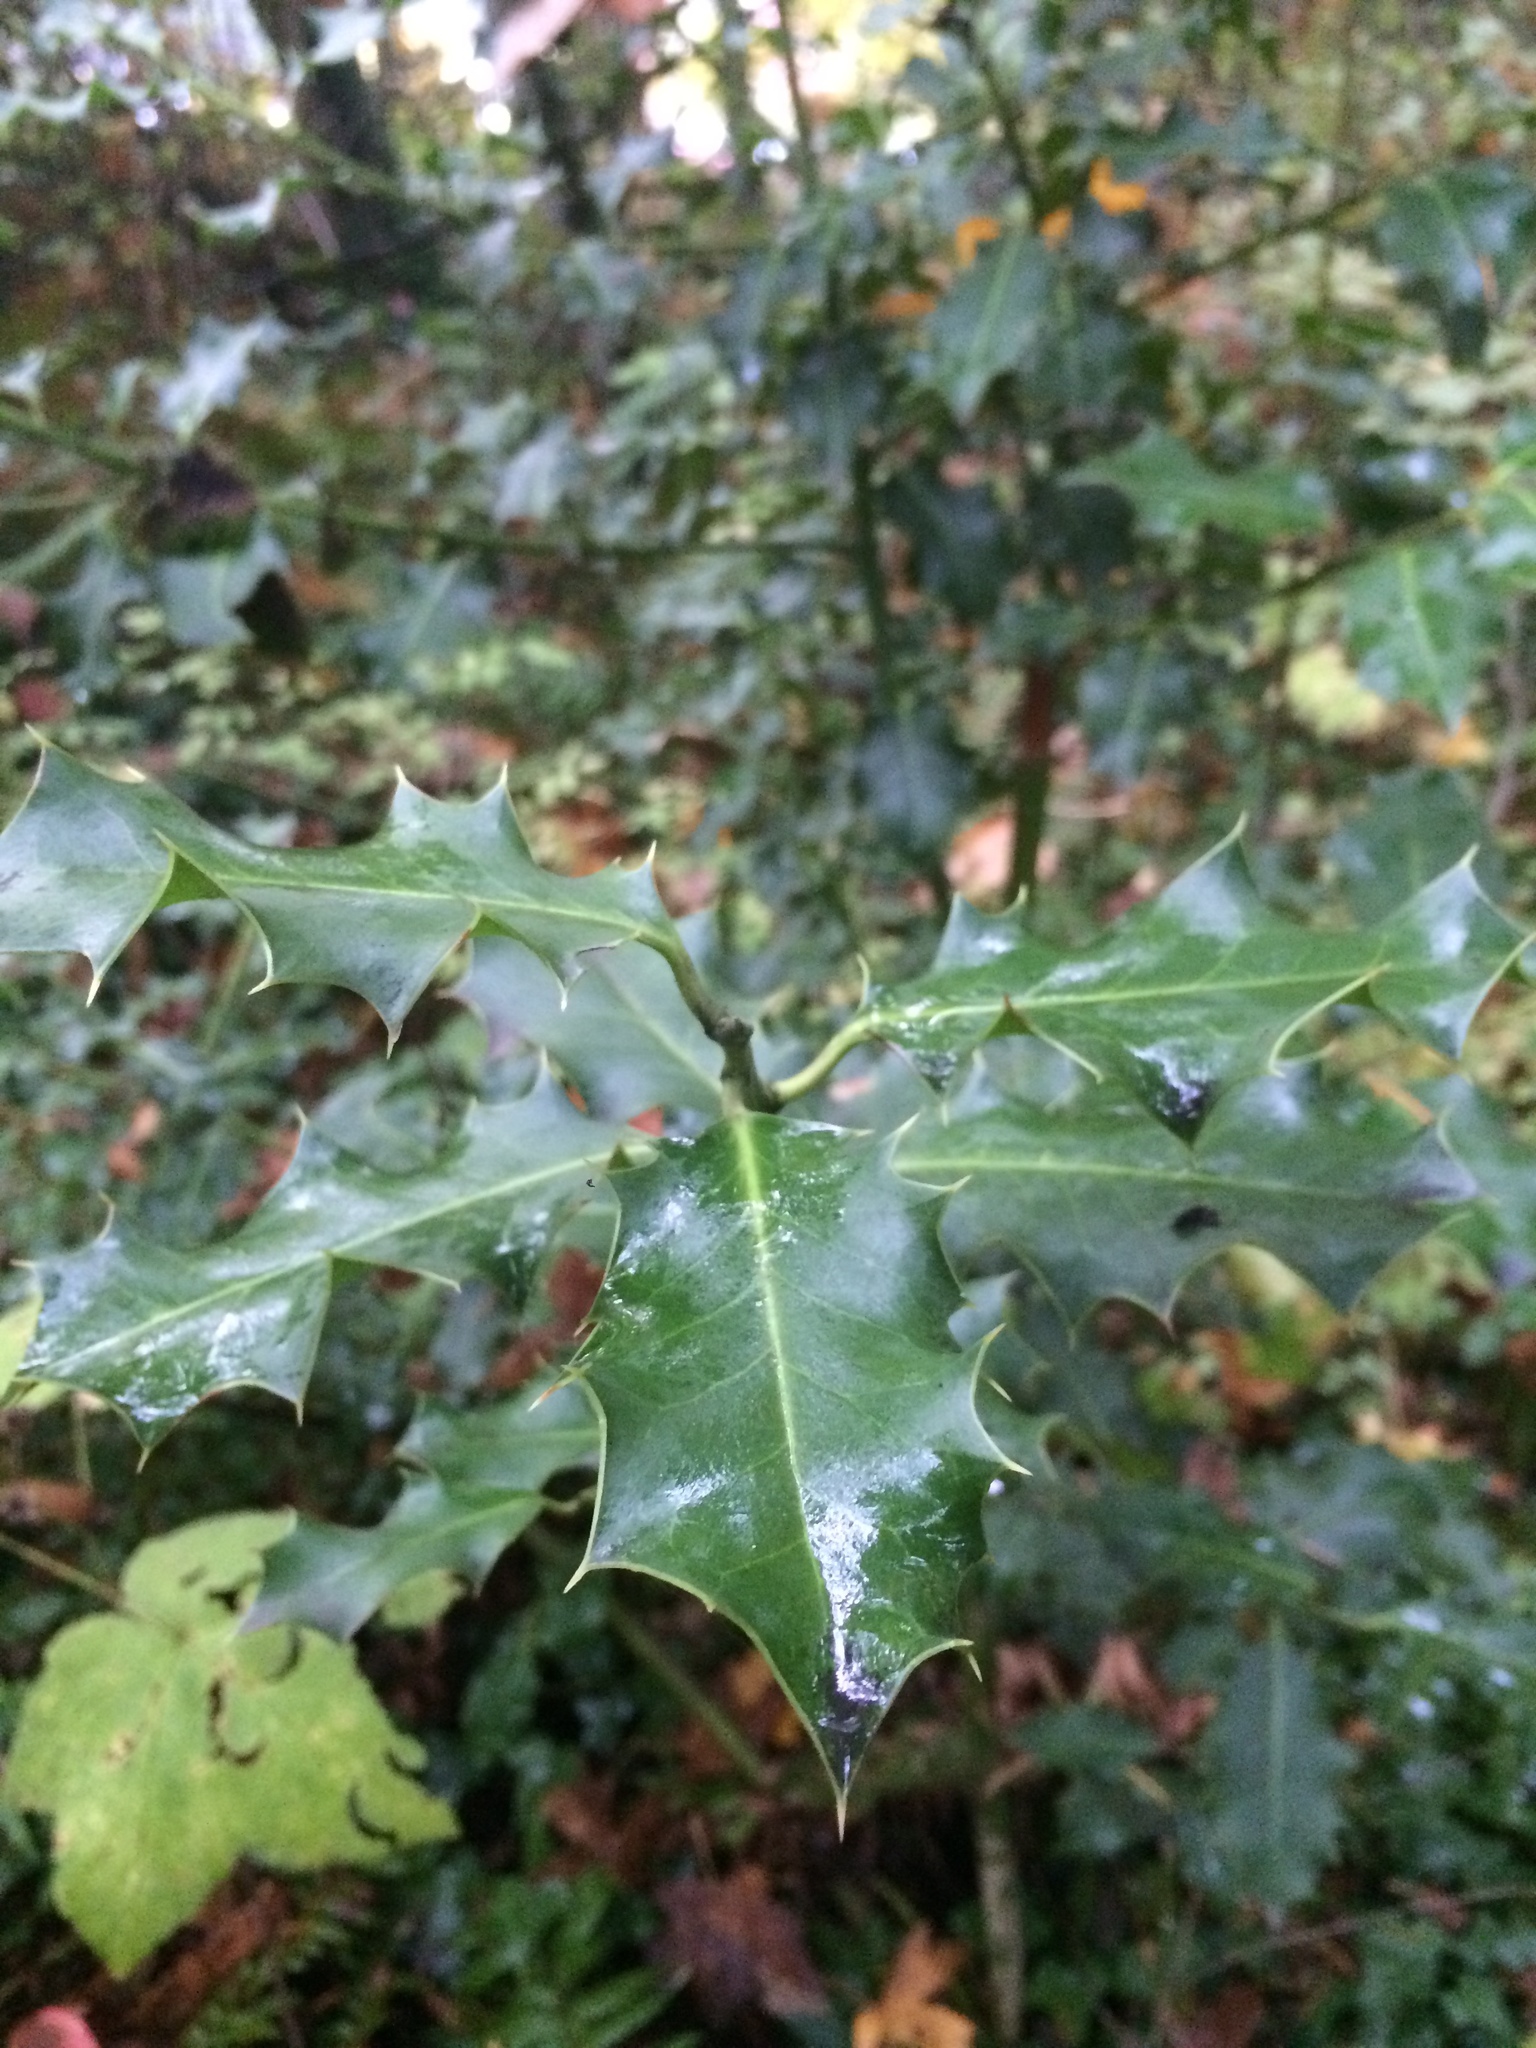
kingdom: Plantae
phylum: Tracheophyta
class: Magnoliopsida
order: Aquifoliales
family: Aquifoliaceae
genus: Ilex
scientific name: Ilex aquifolium
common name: English holly
